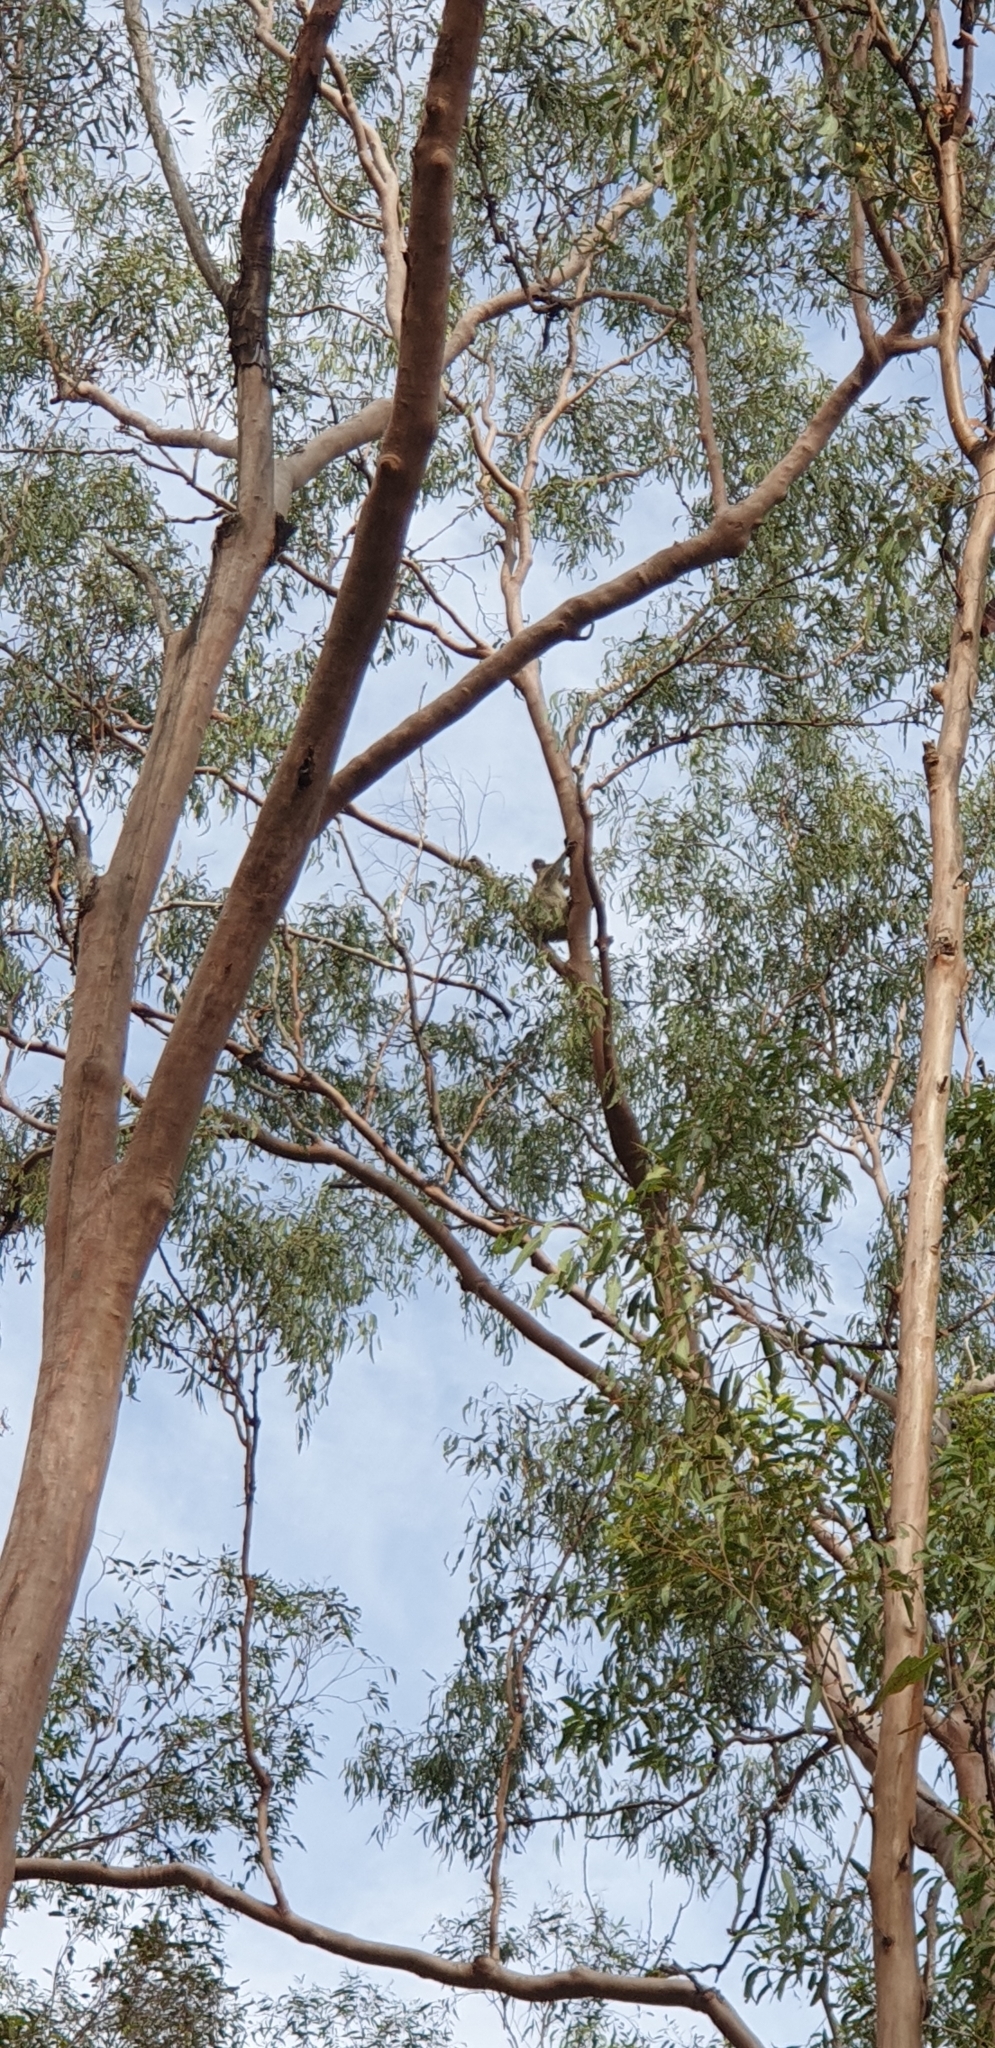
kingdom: Animalia
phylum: Chordata
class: Mammalia
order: Diprotodontia
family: Phascolarctidae
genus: Phascolarctos
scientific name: Phascolarctos cinereus
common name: Koala
